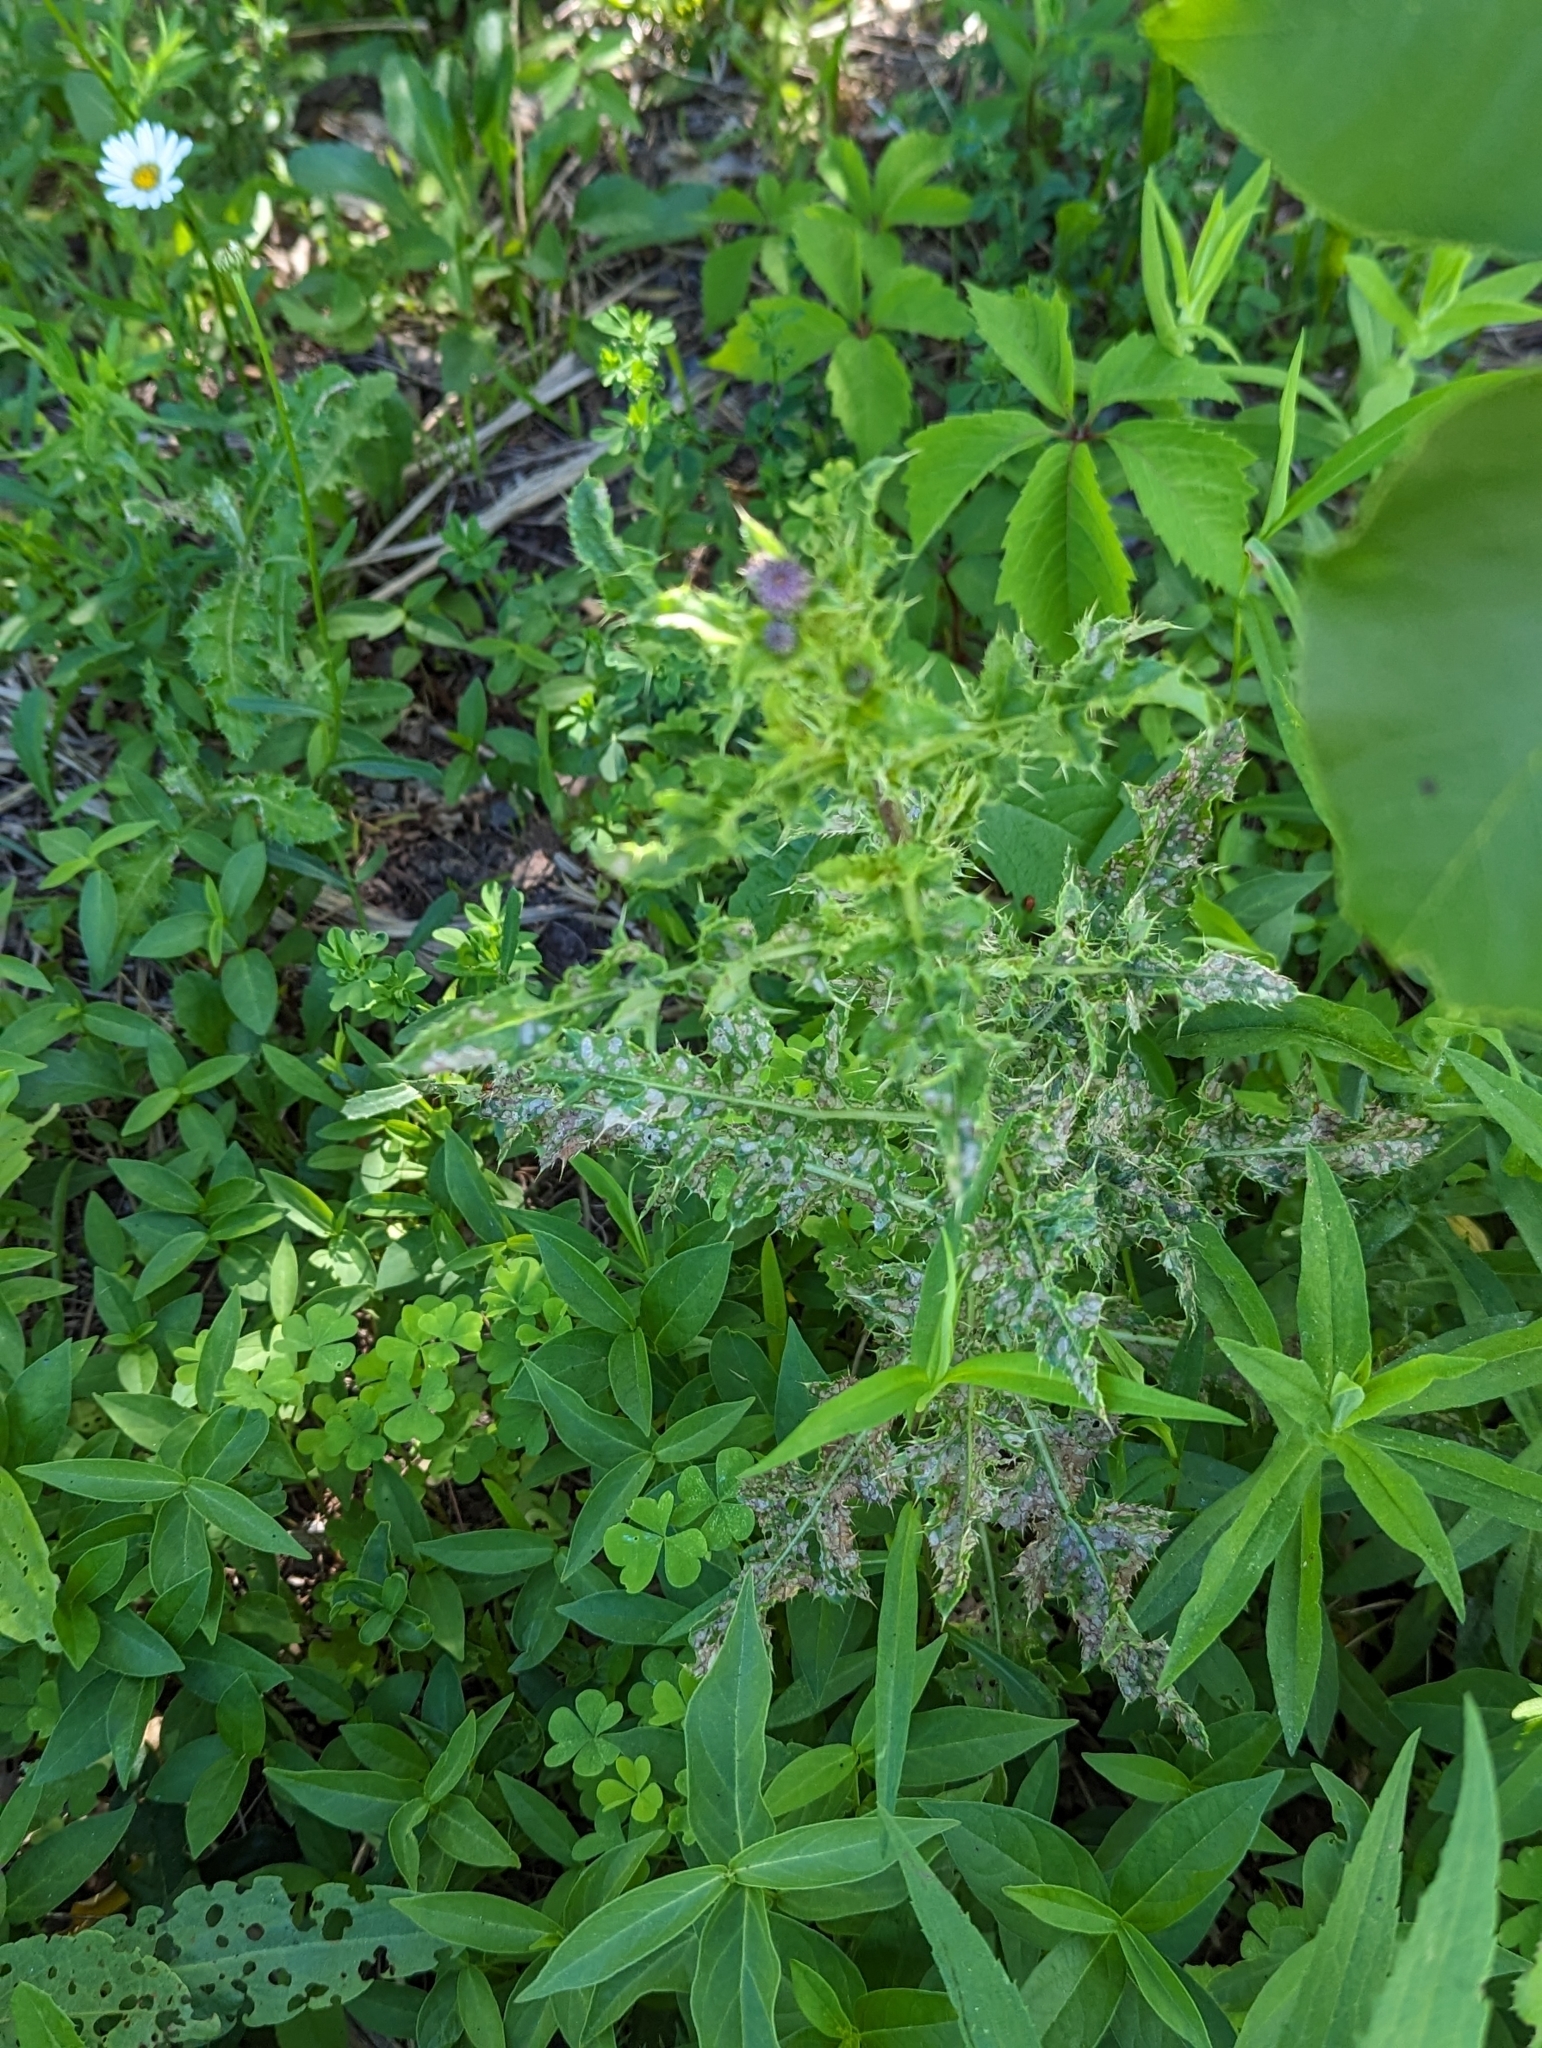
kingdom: Plantae
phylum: Tracheophyta
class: Magnoliopsida
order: Asterales
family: Asteraceae
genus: Cirsium
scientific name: Cirsium arvense
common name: Creeping thistle
